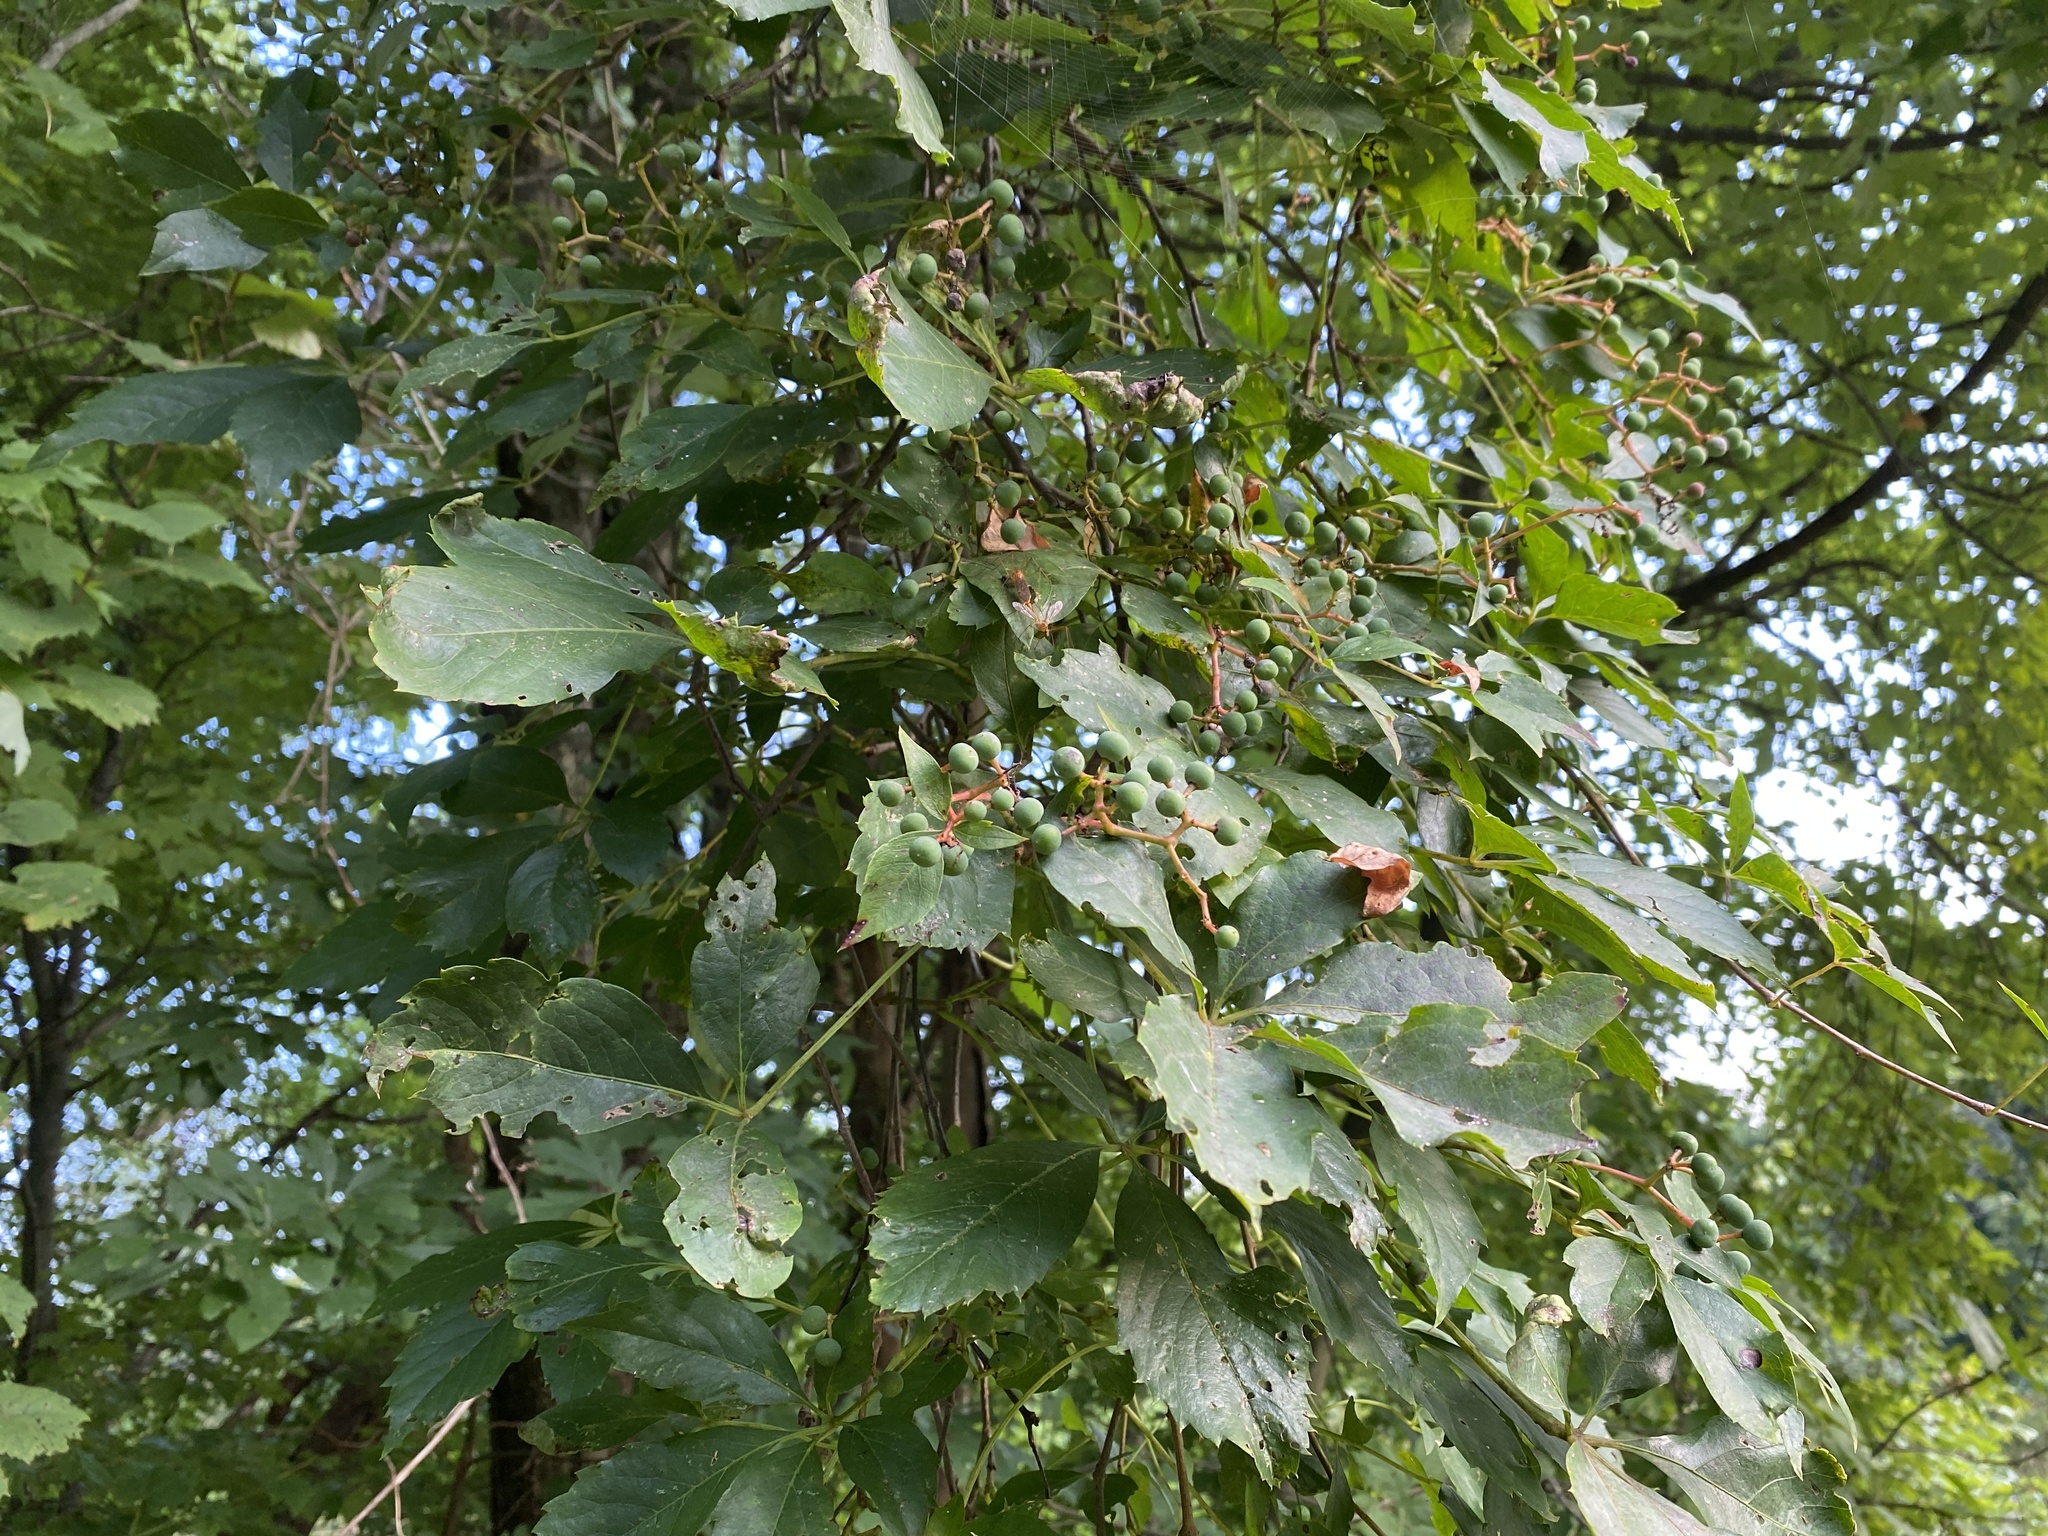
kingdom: Plantae
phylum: Tracheophyta
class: Magnoliopsida
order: Vitales
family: Vitaceae
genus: Parthenocissus
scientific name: Parthenocissus quinquefolia
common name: Virginia-creeper
